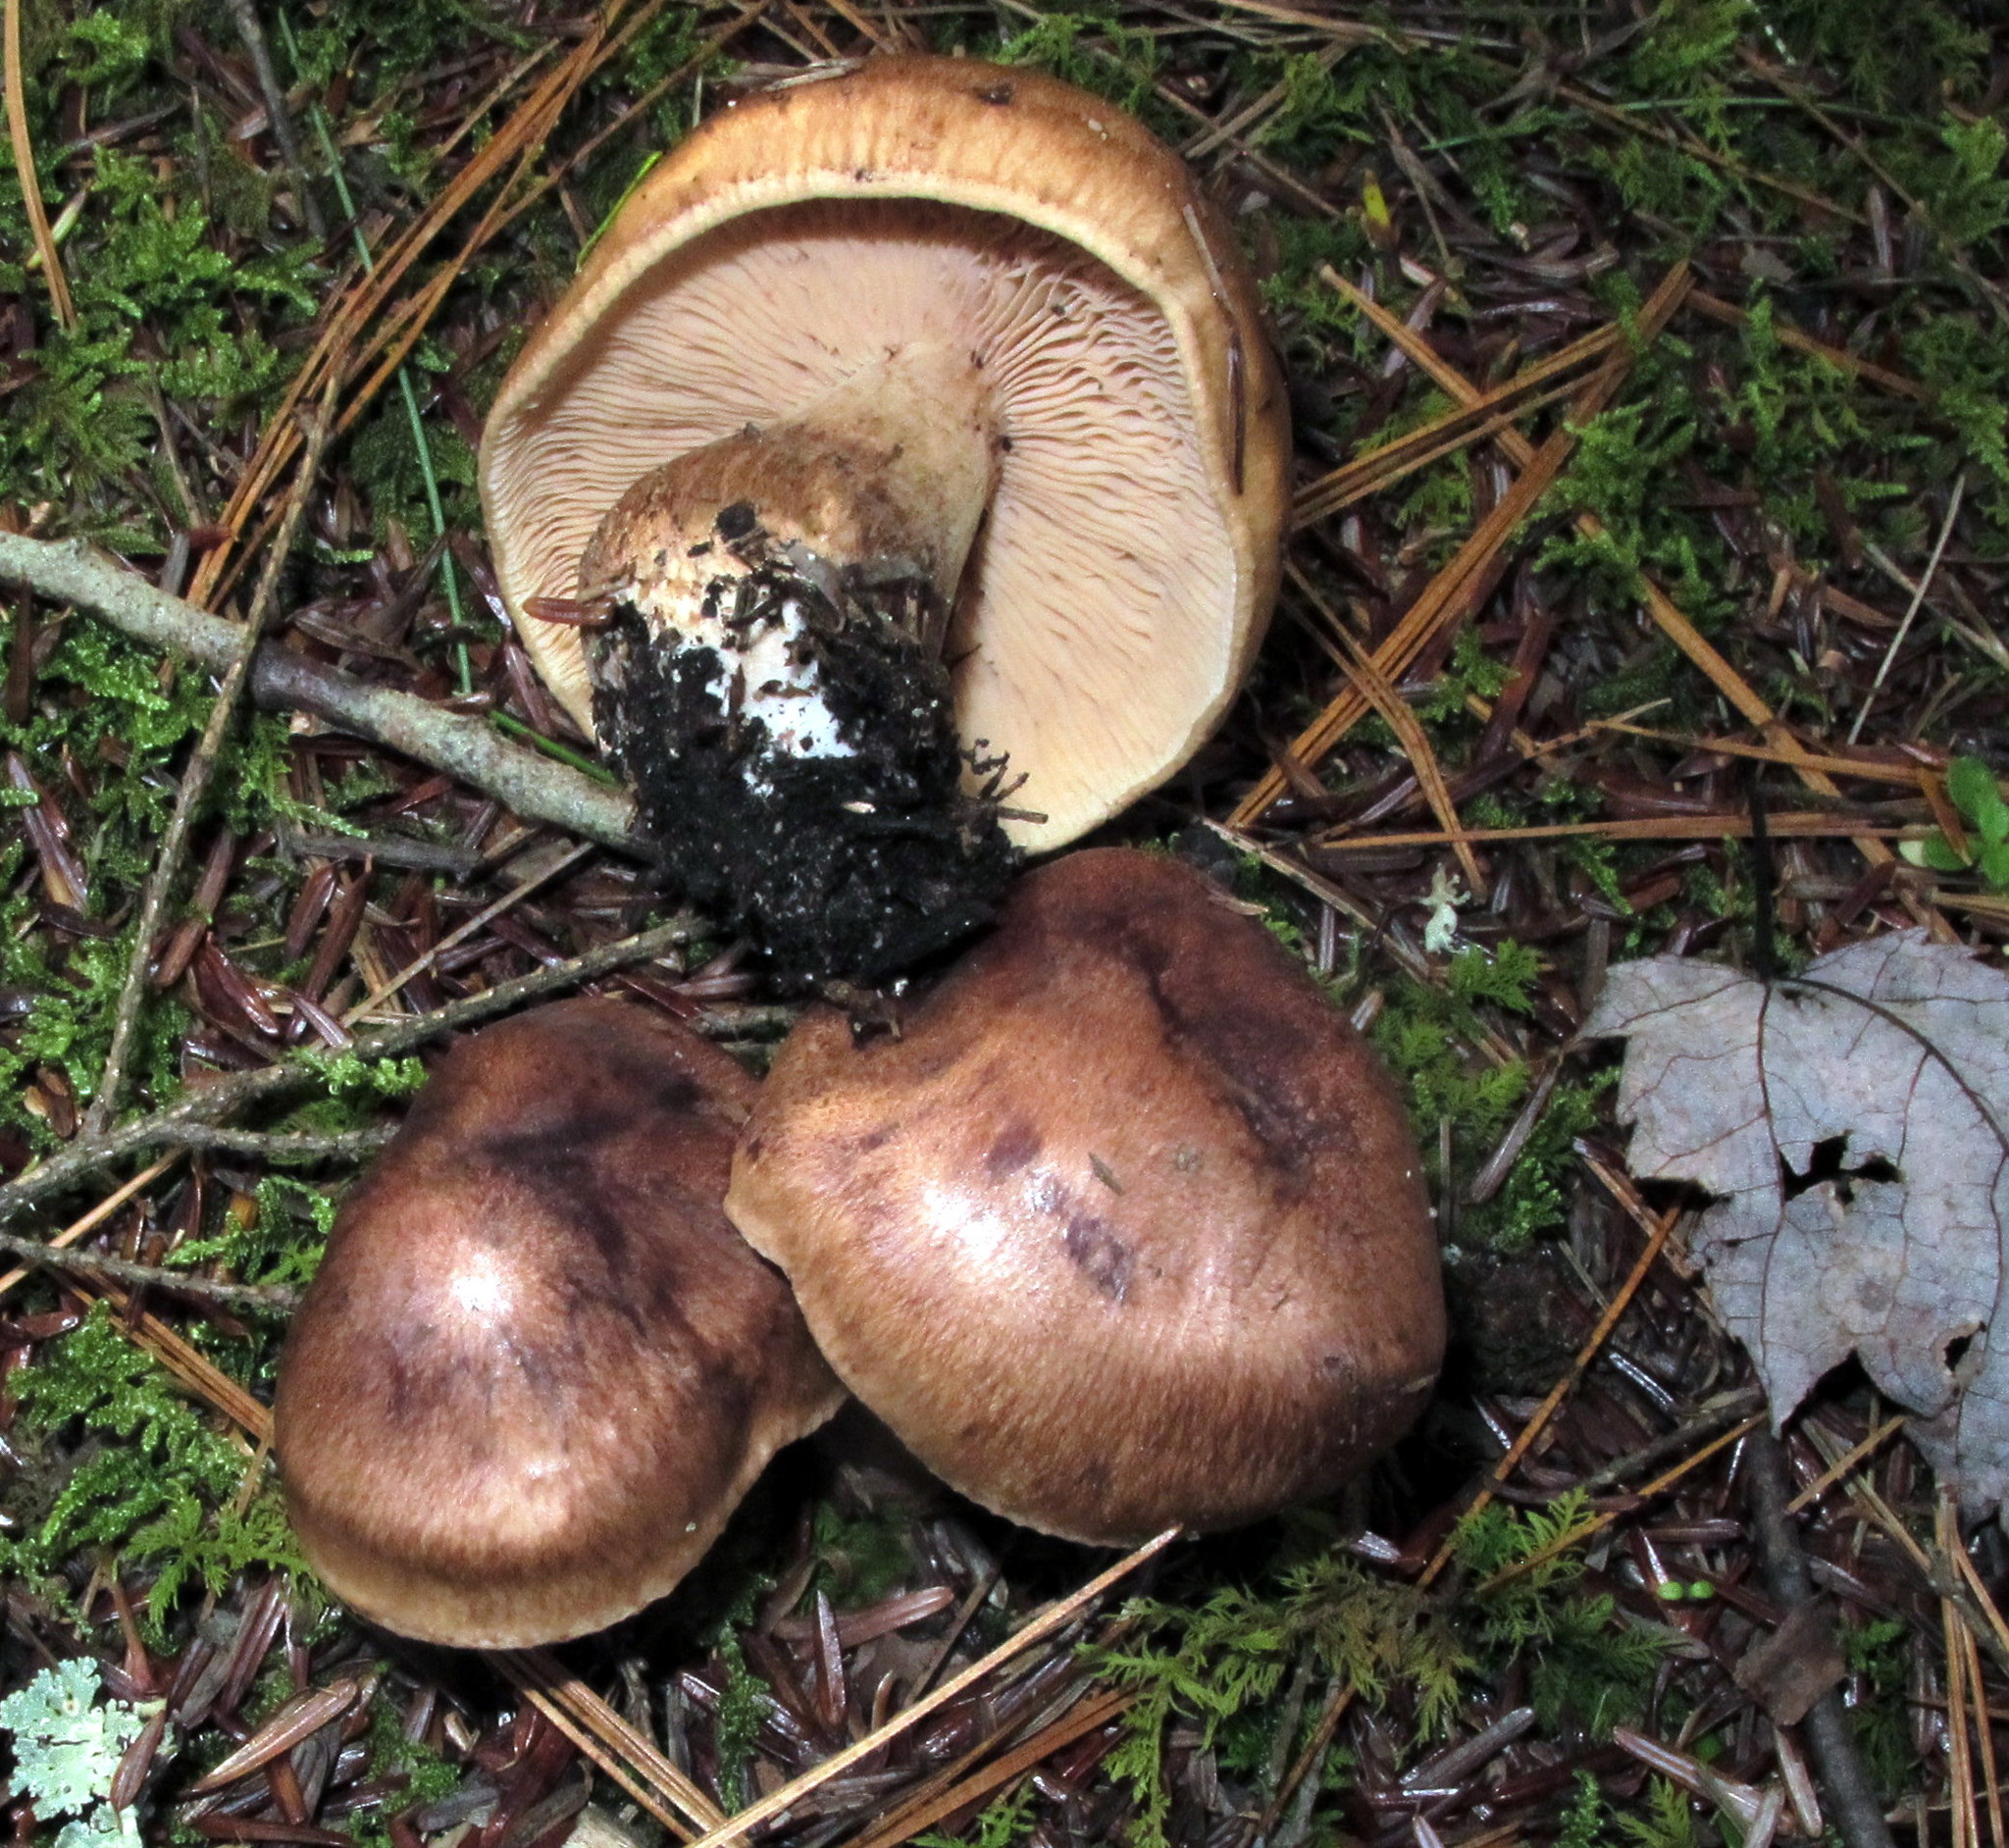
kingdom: Fungi
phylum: Basidiomycota
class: Agaricomycetes
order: Agaricales
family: Tricholomataceae
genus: Tricholoma
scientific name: Tricholoma fulvum
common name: Birch knight
